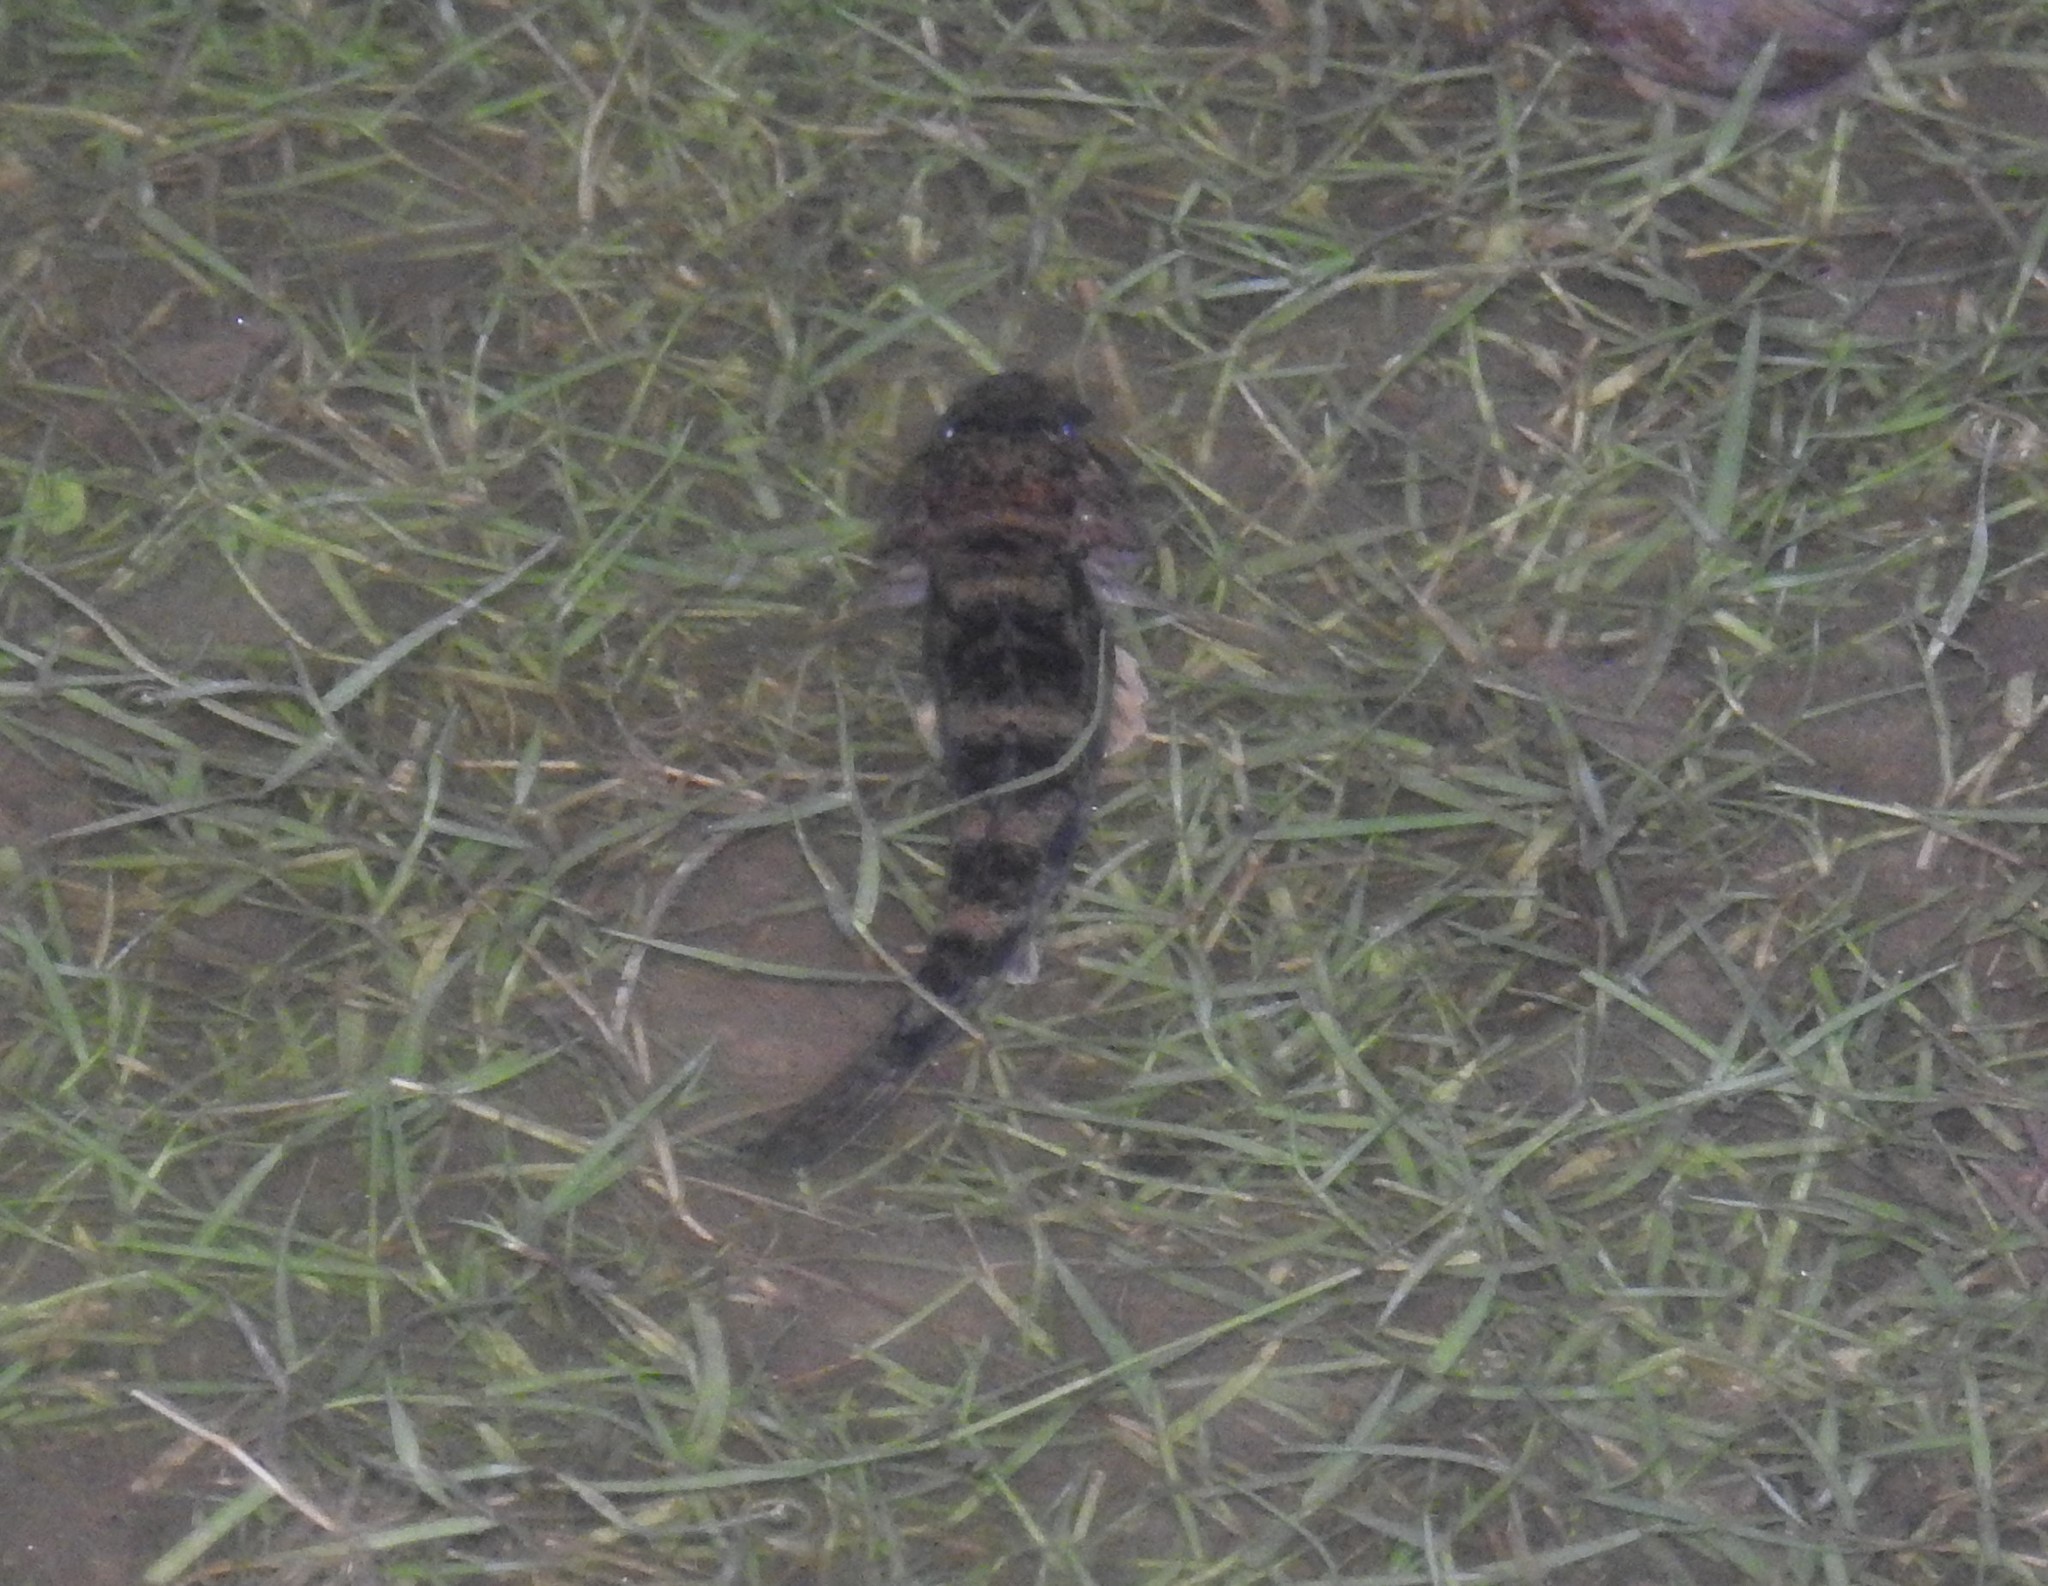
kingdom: Animalia
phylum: Chordata
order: Perciformes
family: Gobiidae
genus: Glossogobius
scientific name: Glossogobius giuris
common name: Tank goby
